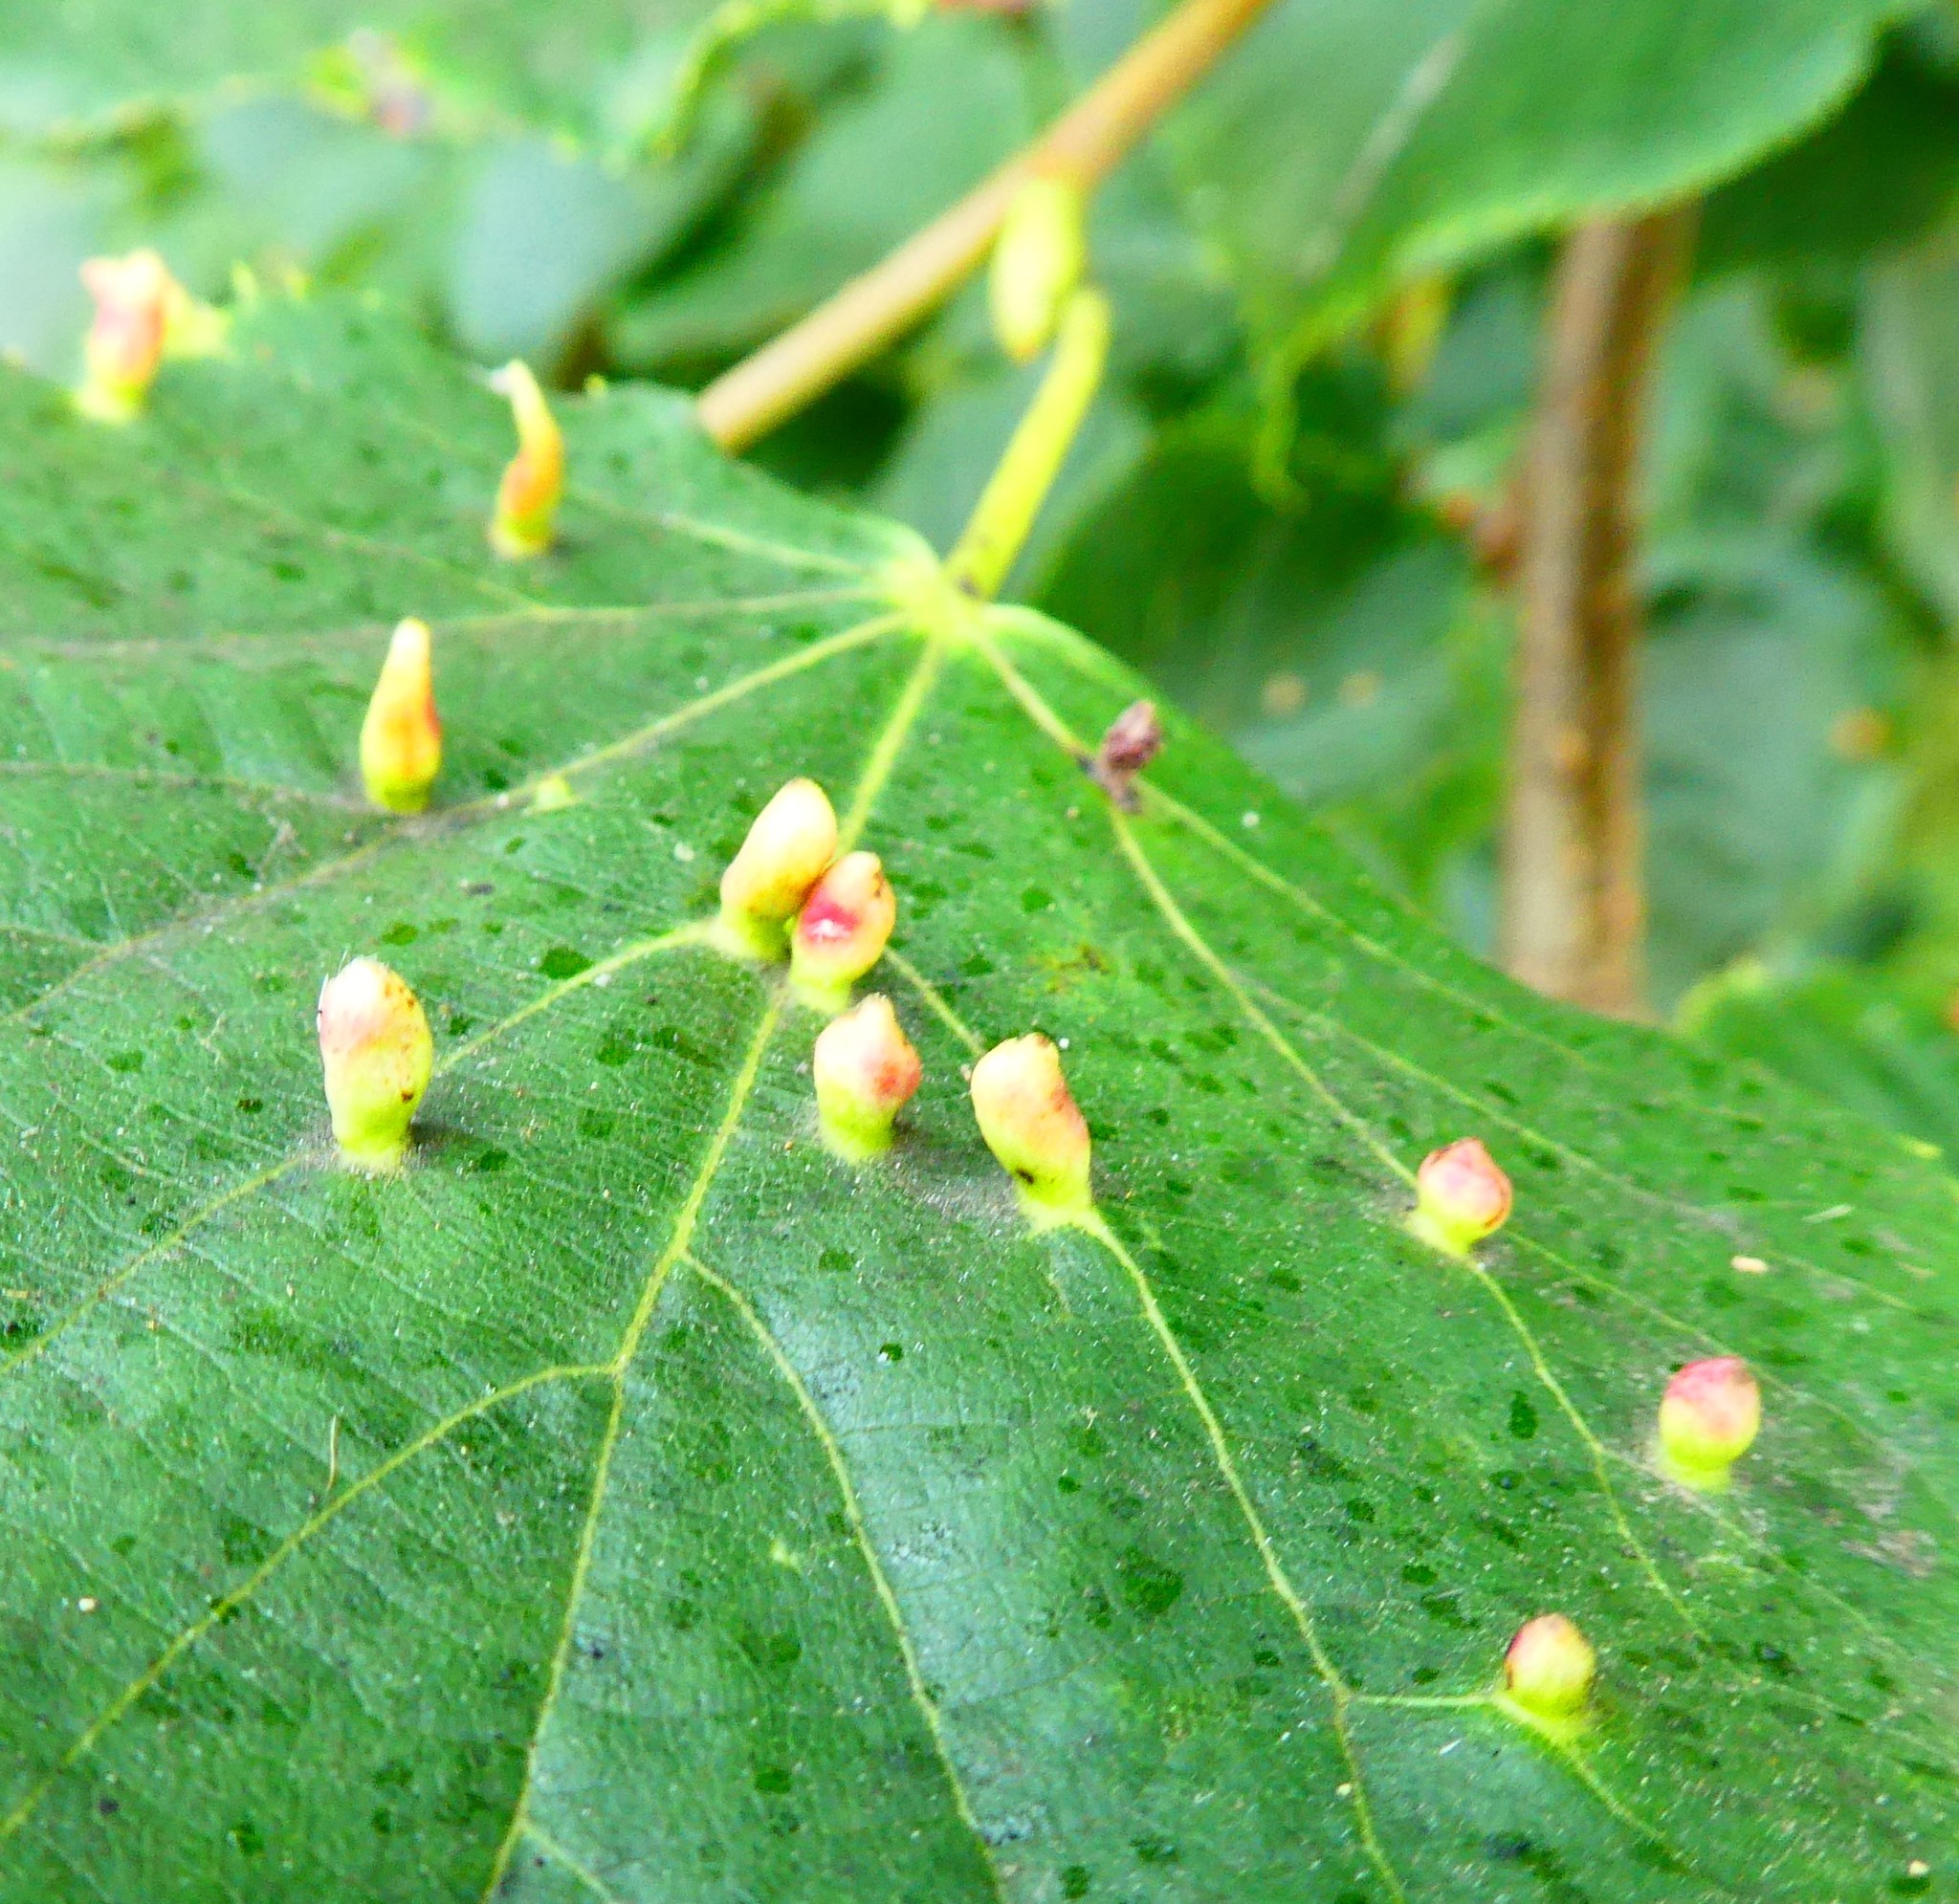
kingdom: Animalia
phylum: Arthropoda
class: Arachnida
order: Trombidiformes
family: Eriophyidae
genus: Eriophyes
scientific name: Eriophyes tiliae
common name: Red nail gall mite
